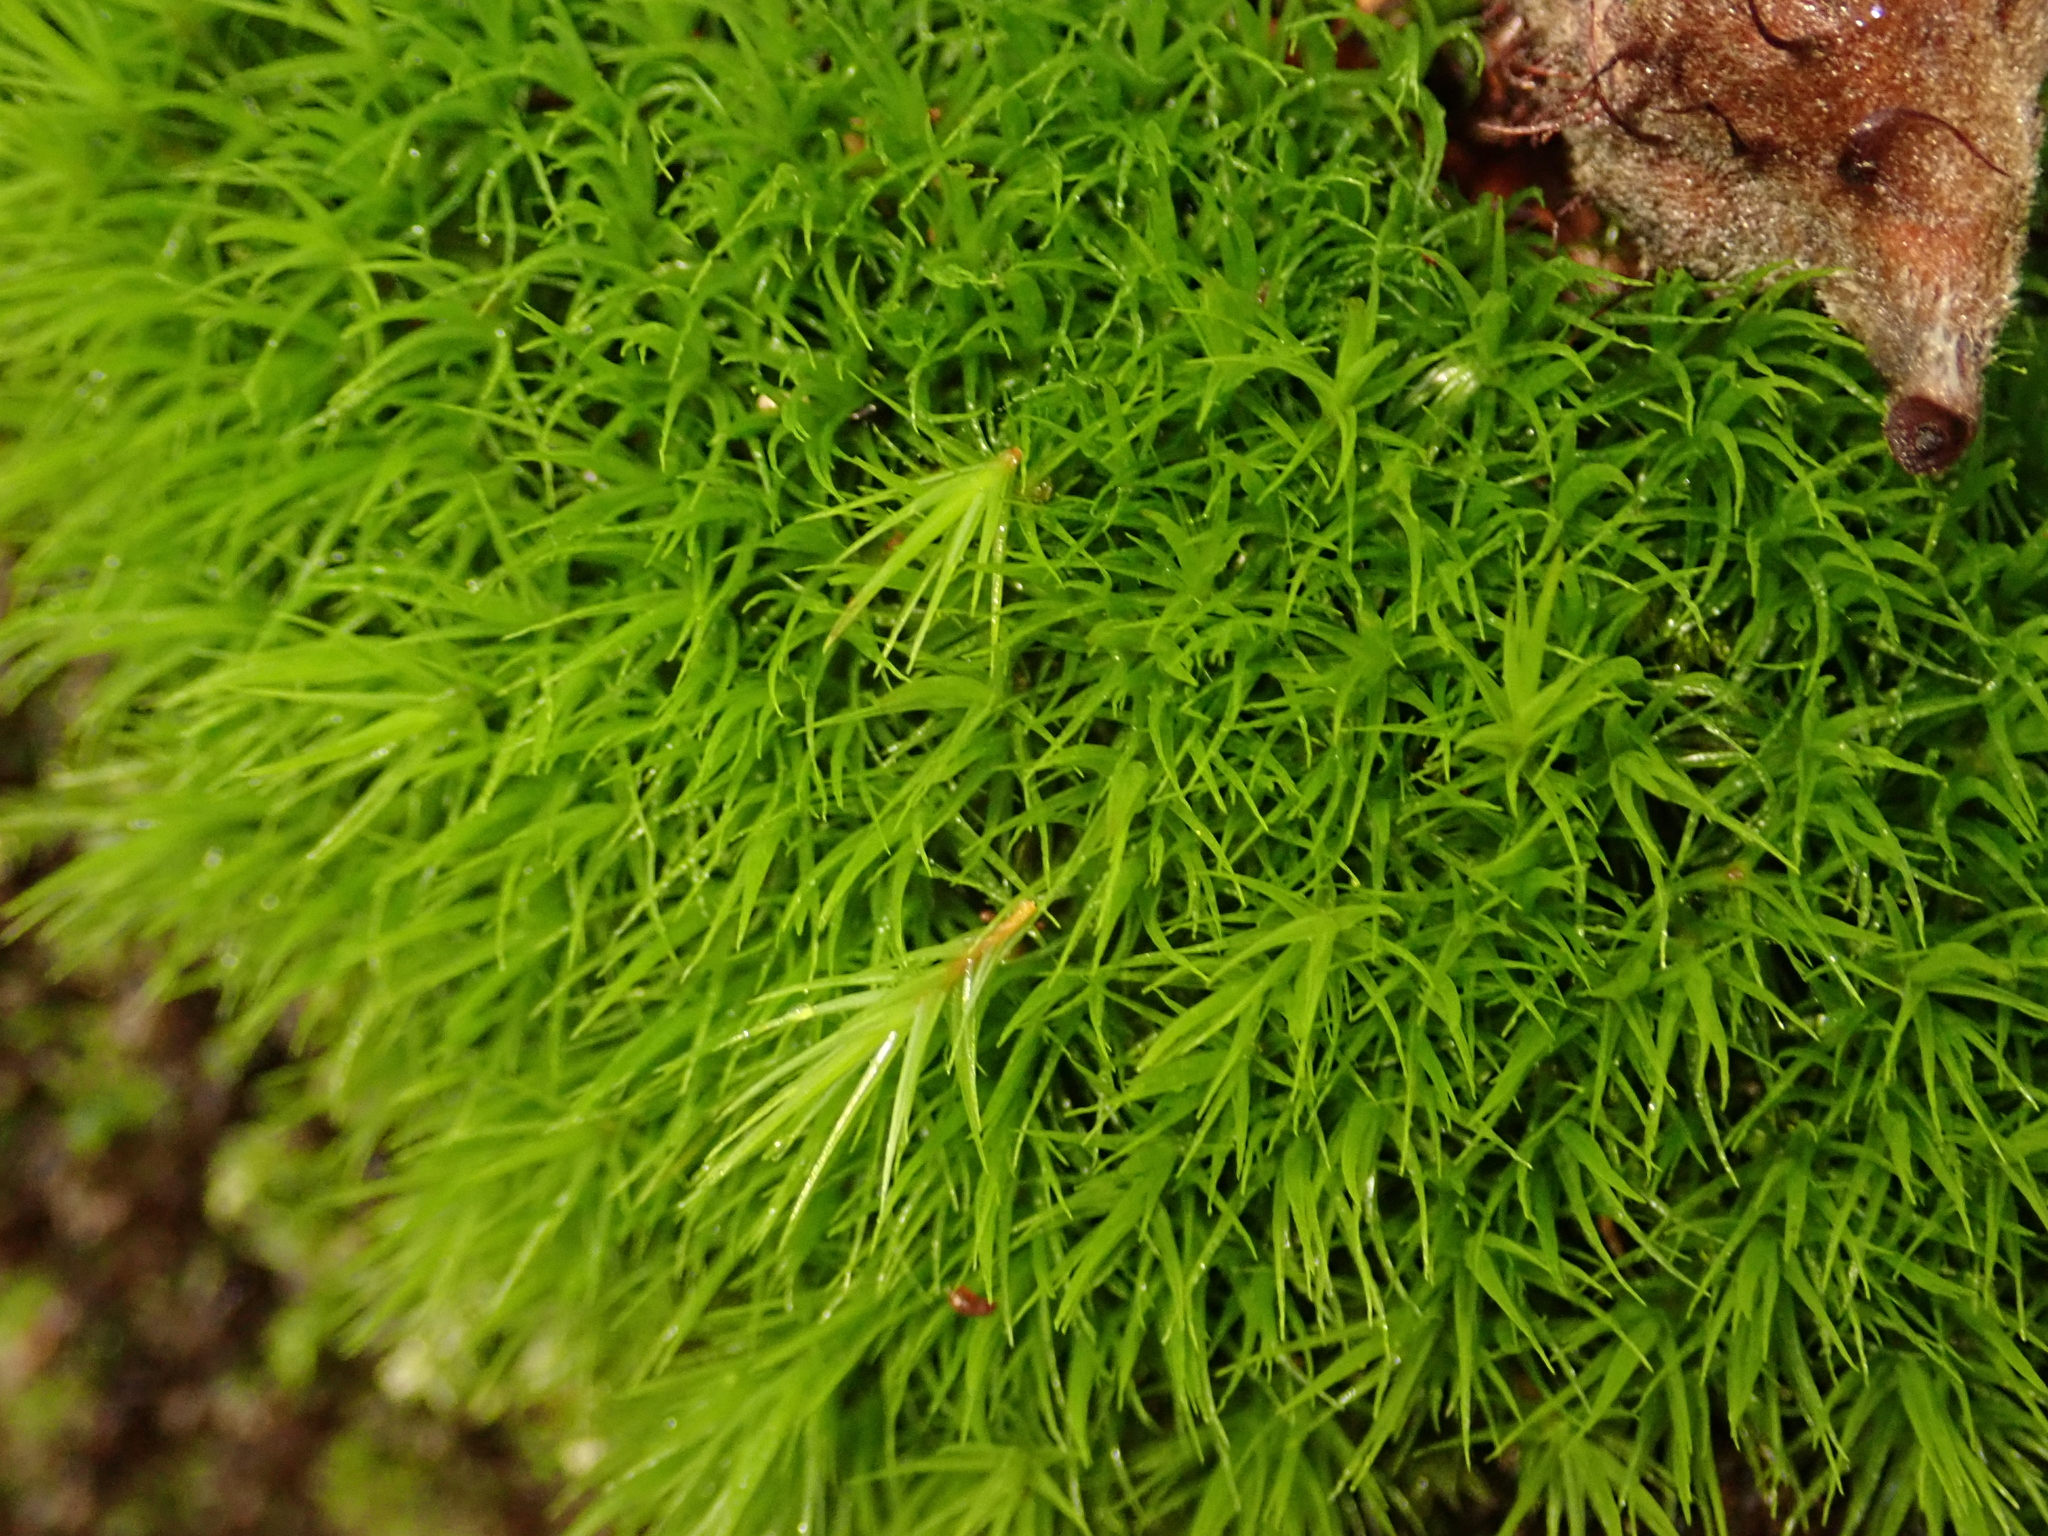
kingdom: Plantae
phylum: Bryophyta
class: Bryopsida
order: Dicranales
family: Dicranaceae
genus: Dicranum
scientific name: Dicranum scoparium
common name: Broom fork-moss
